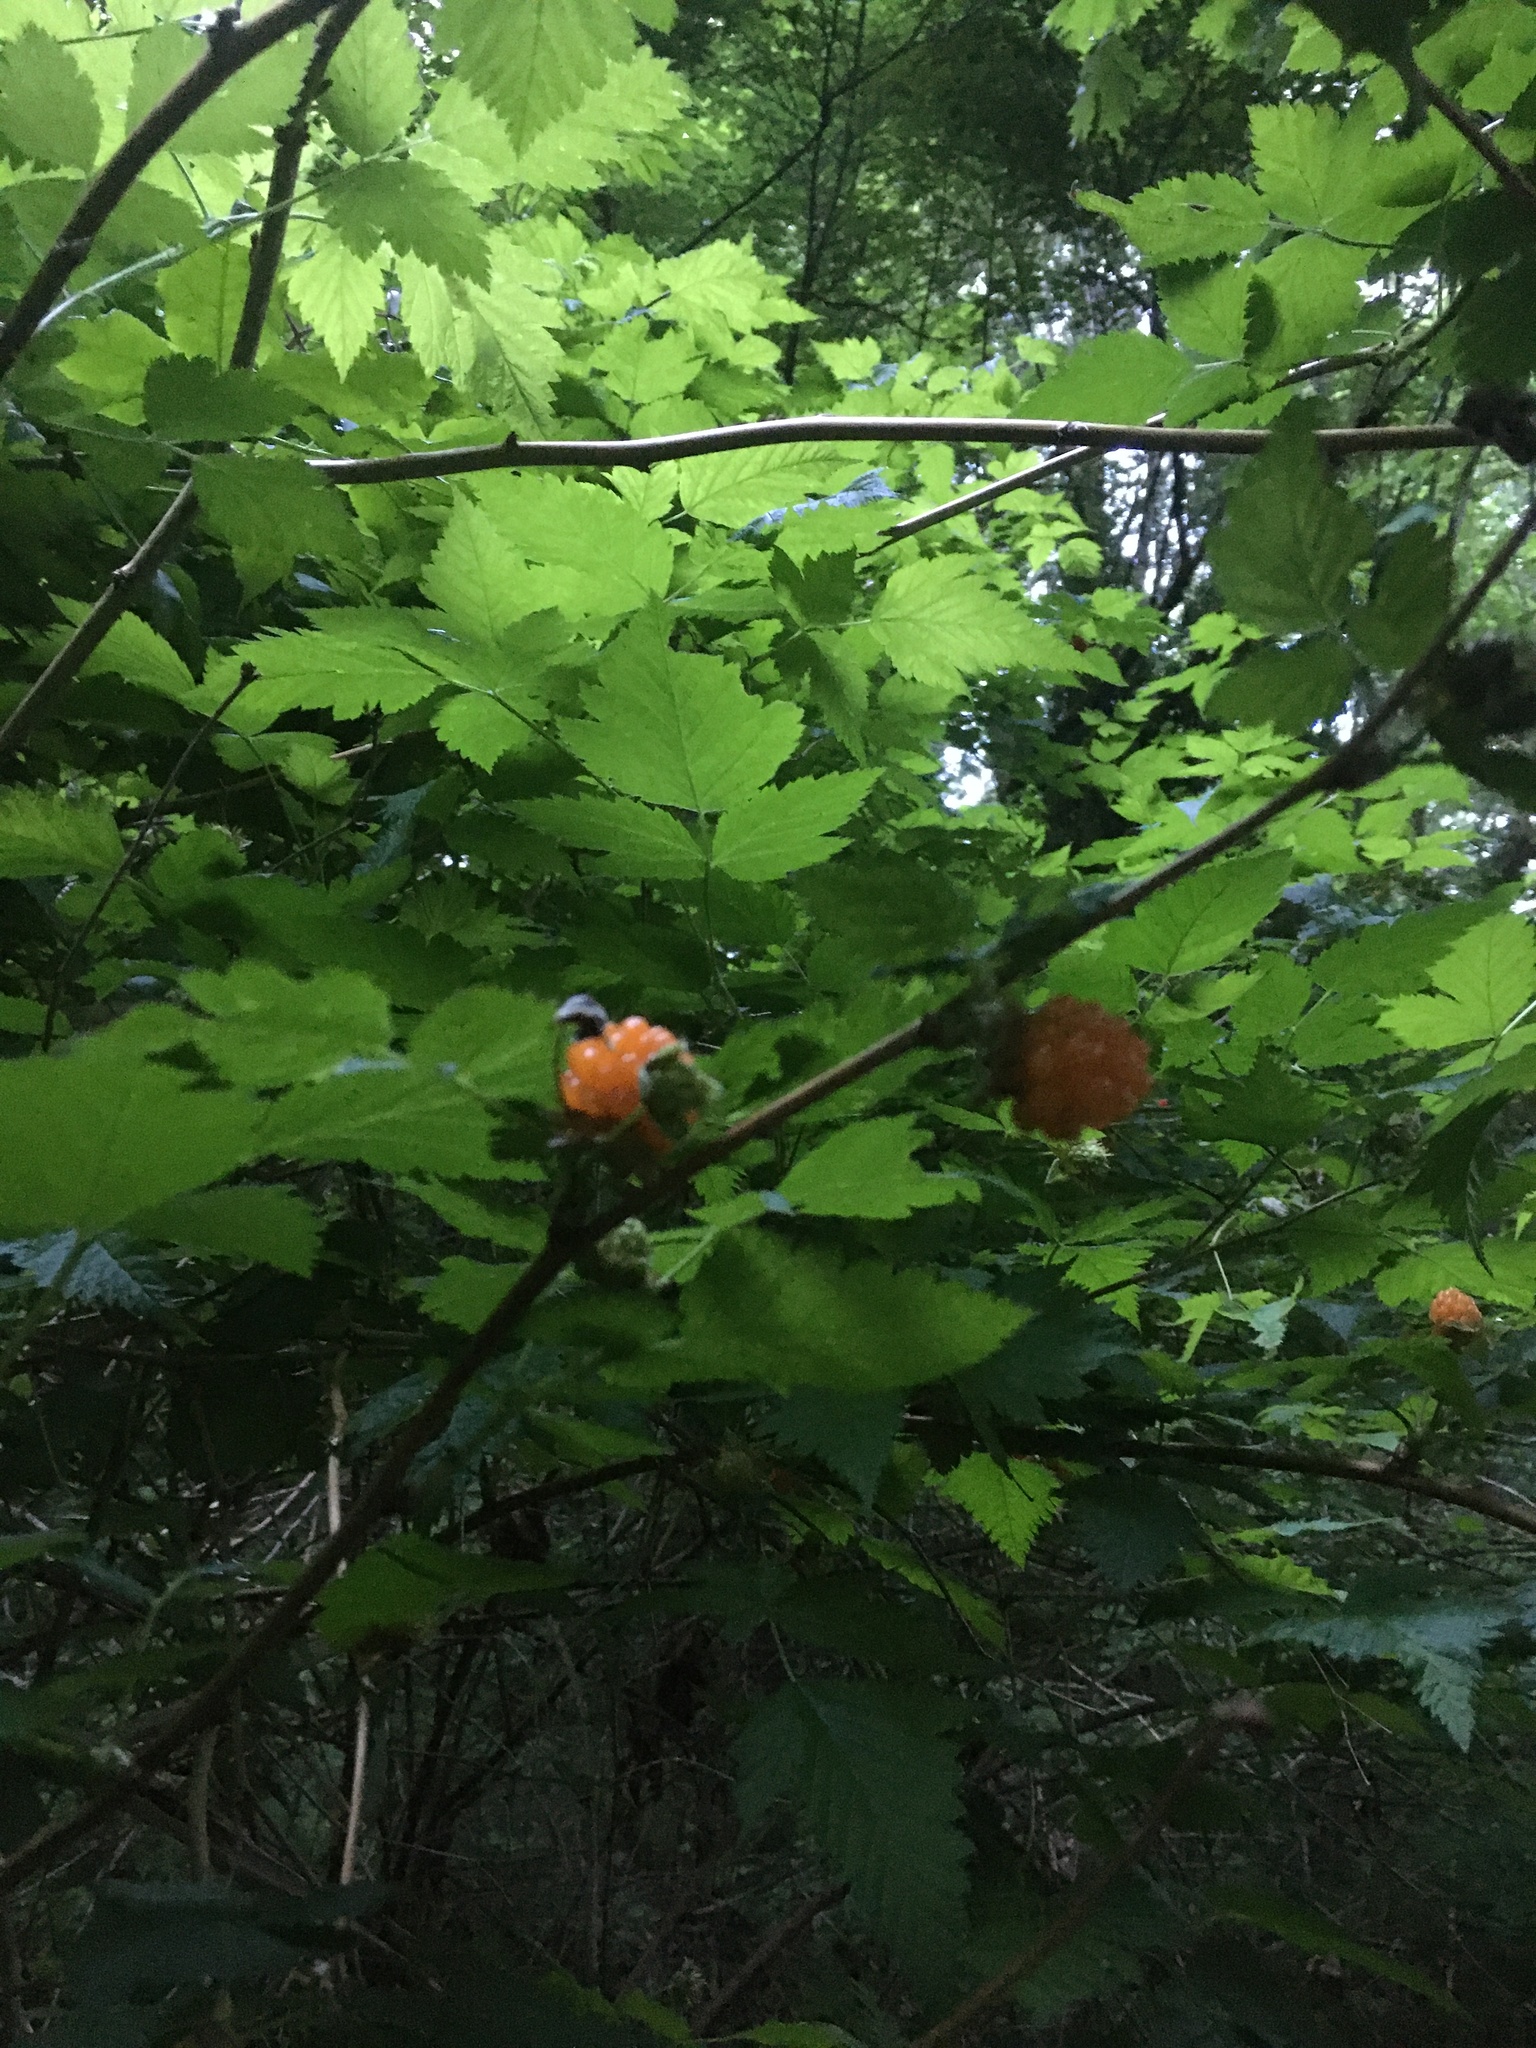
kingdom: Plantae
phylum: Tracheophyta
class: Magnoliopsida
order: Rosales
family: Rosaceae
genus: Rubus
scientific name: Rubus spectabilis
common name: Salmonberry
